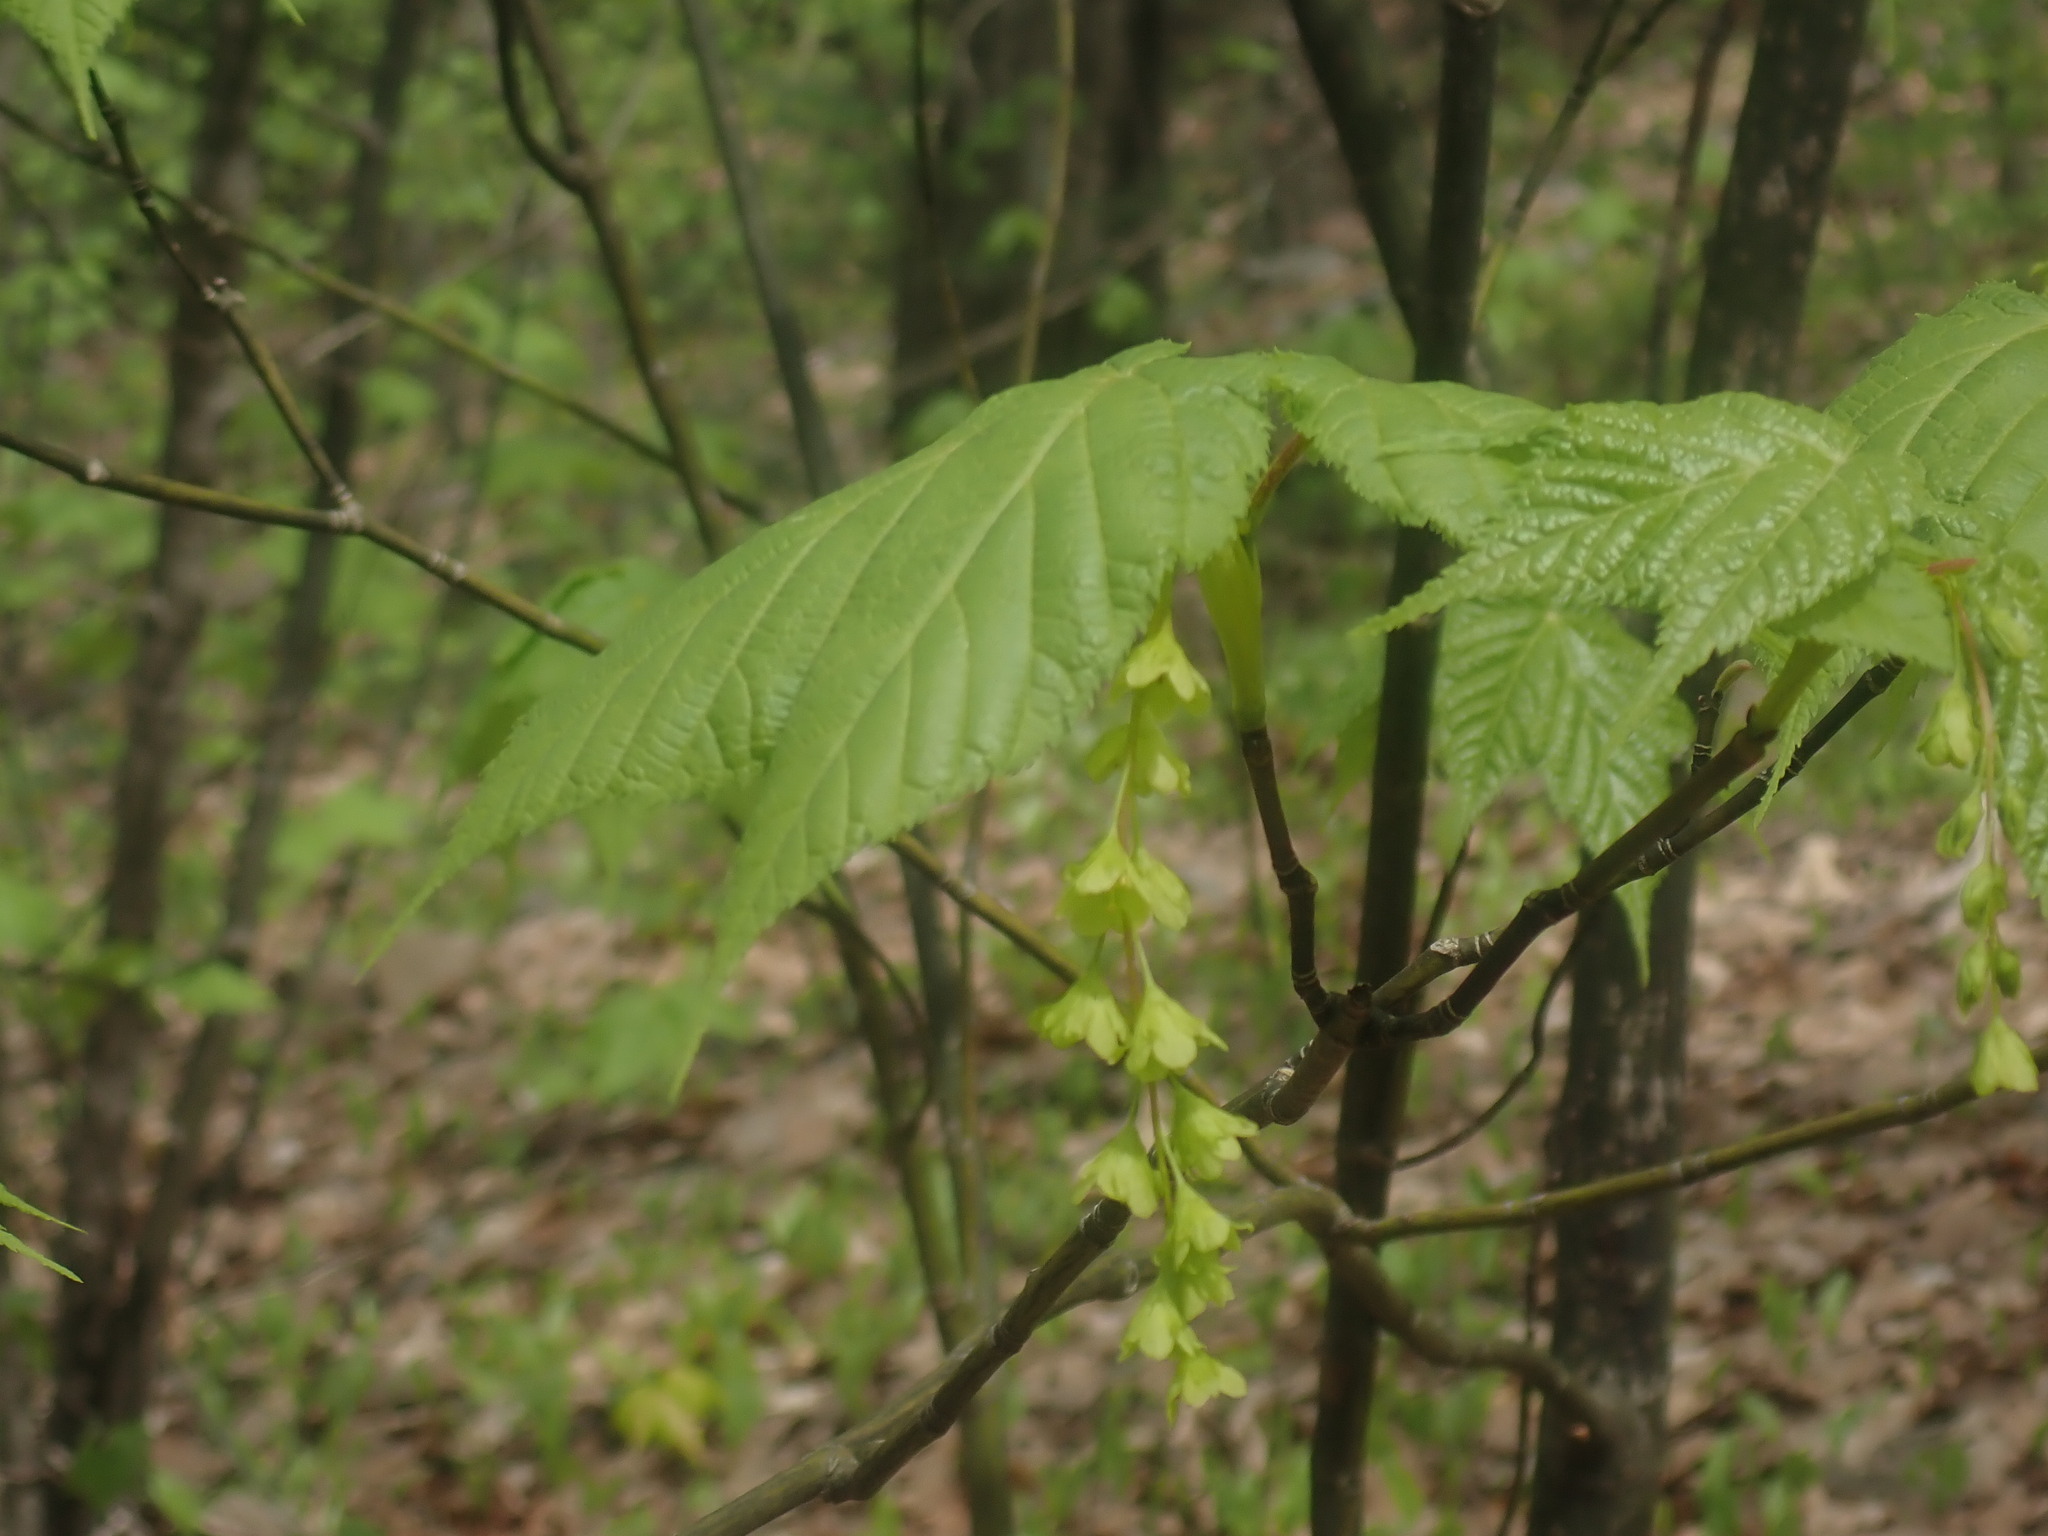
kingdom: Plantae
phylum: Tracheophyta
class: Magnoliopsida
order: Sapindales
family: Sapindaceae
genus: Acer
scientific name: Acer pensylvanicum
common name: Moosewood
